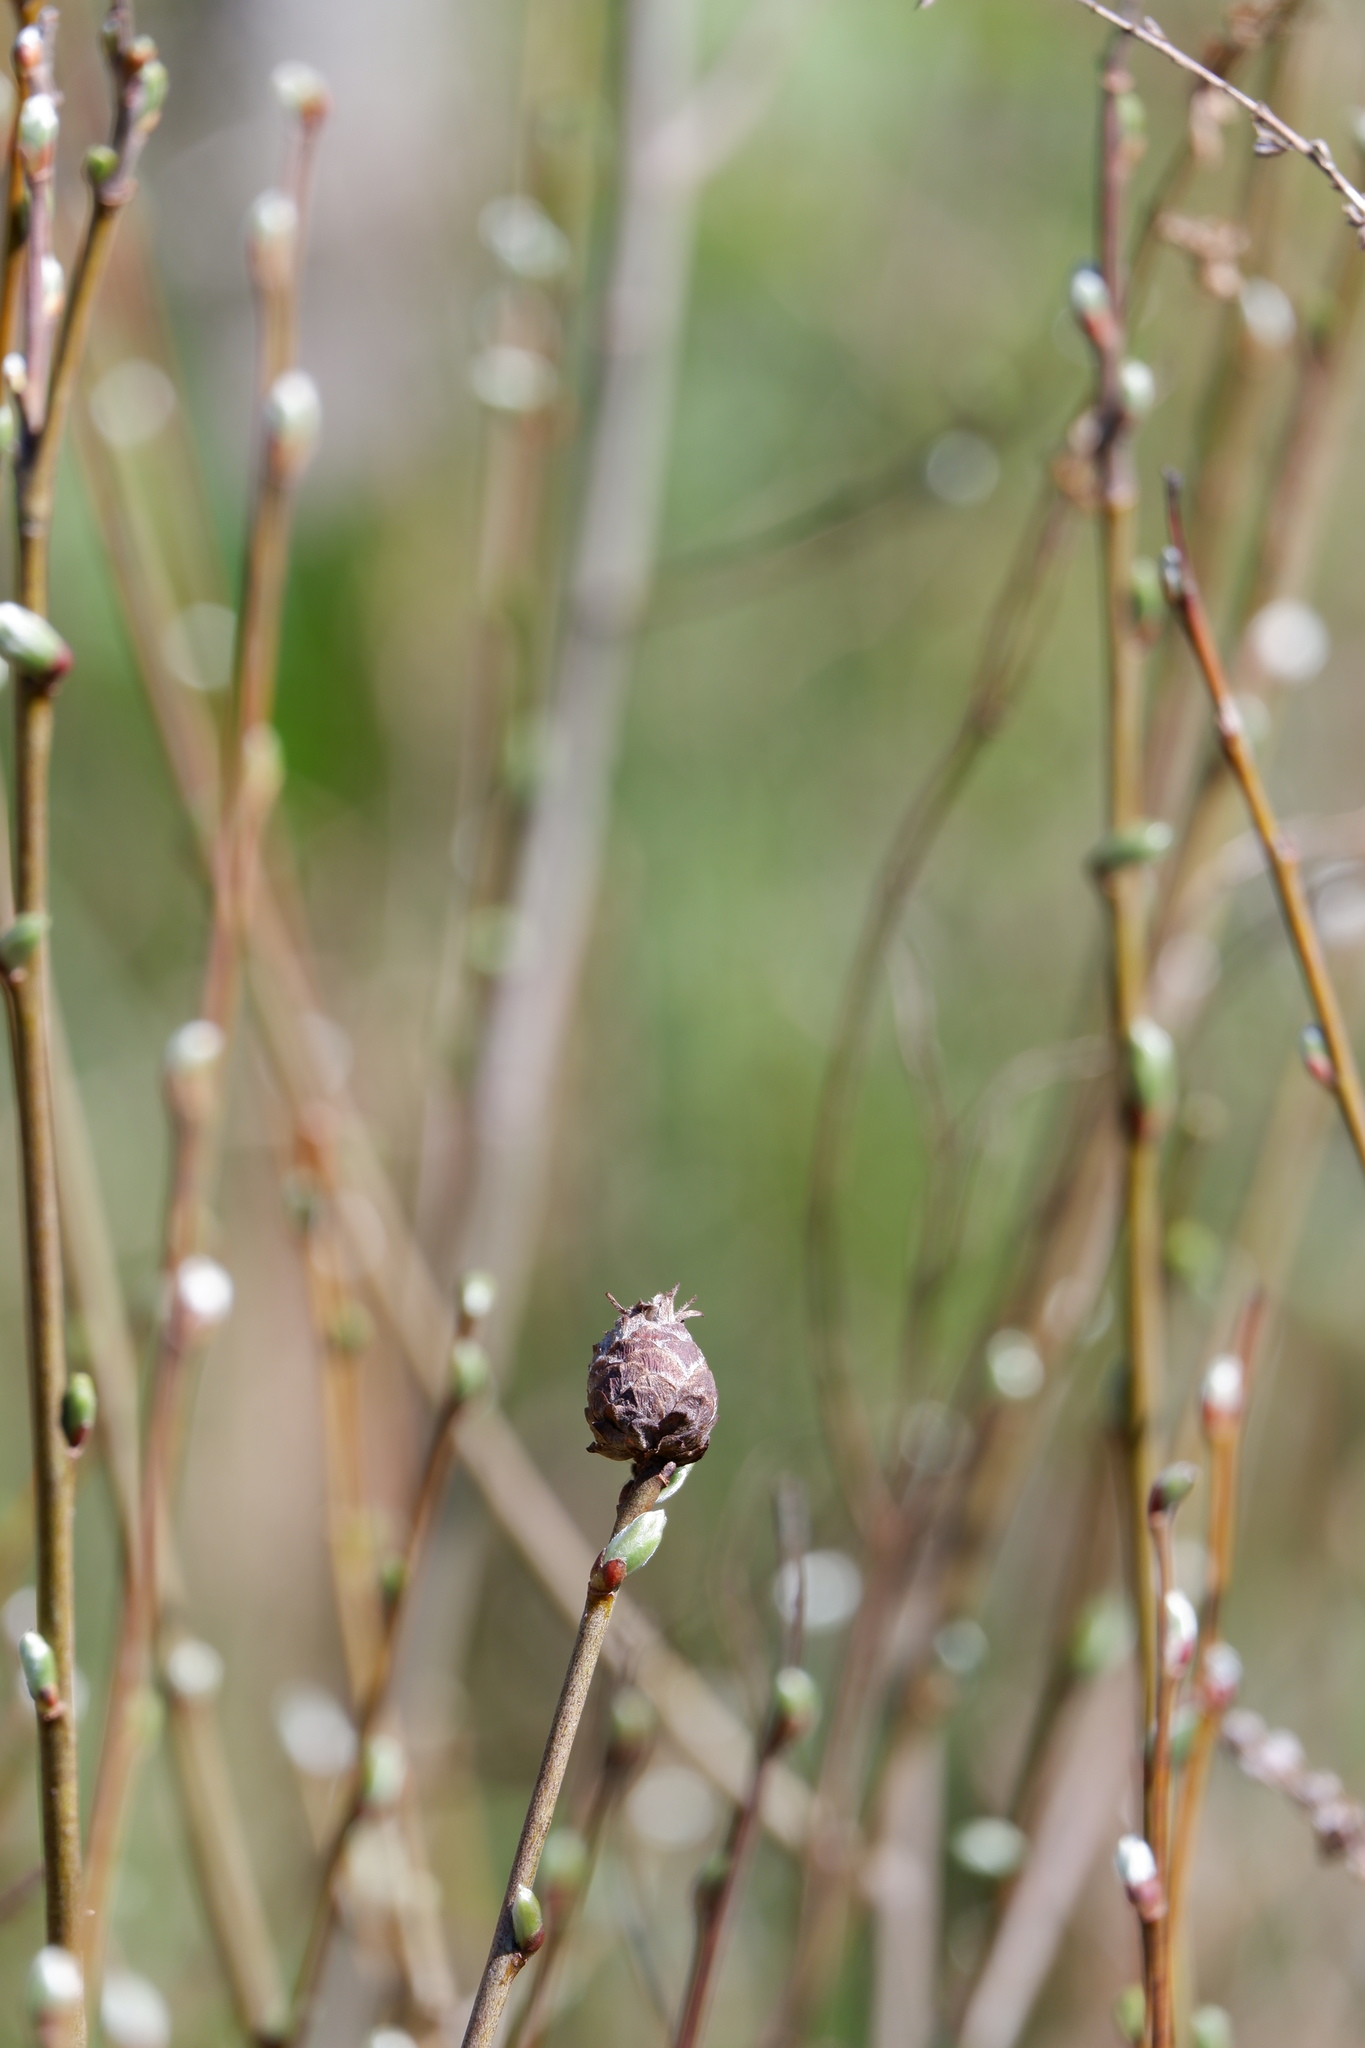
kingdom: Animalia
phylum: Arthropoda
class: Insecta
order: Diptera
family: Cecidomyiidae
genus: Rabdophaga
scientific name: Rabdophaga strobiloides
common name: Willow pinecone gall midge
